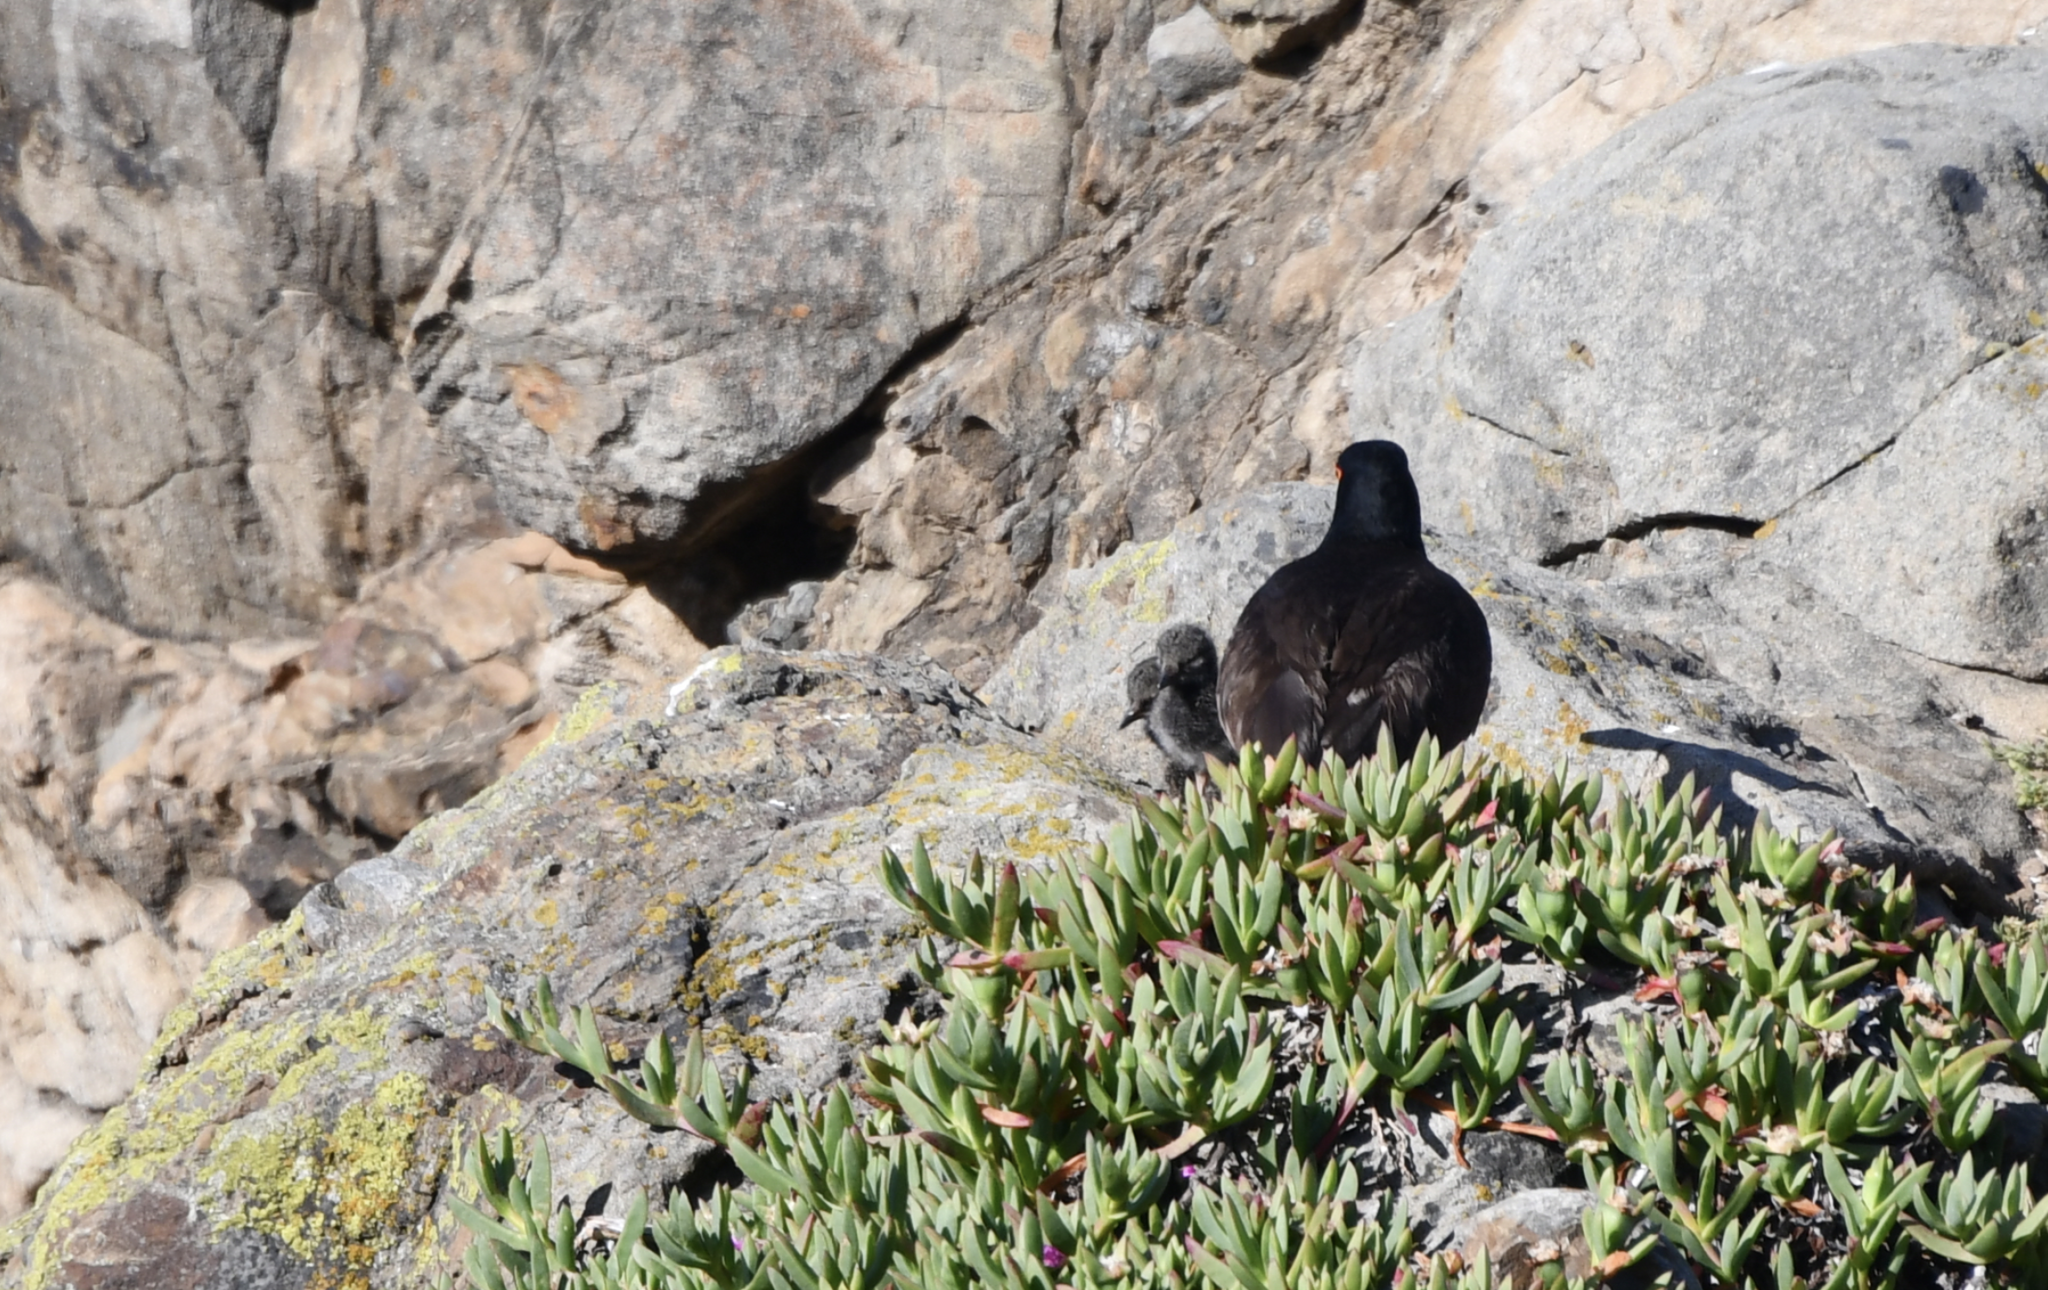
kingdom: Animalia
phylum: Chordata
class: Aves
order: Charadriiformes
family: Haematopodidae
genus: Haematopus
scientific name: Haematopus bachmani
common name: Black oystercatcher
